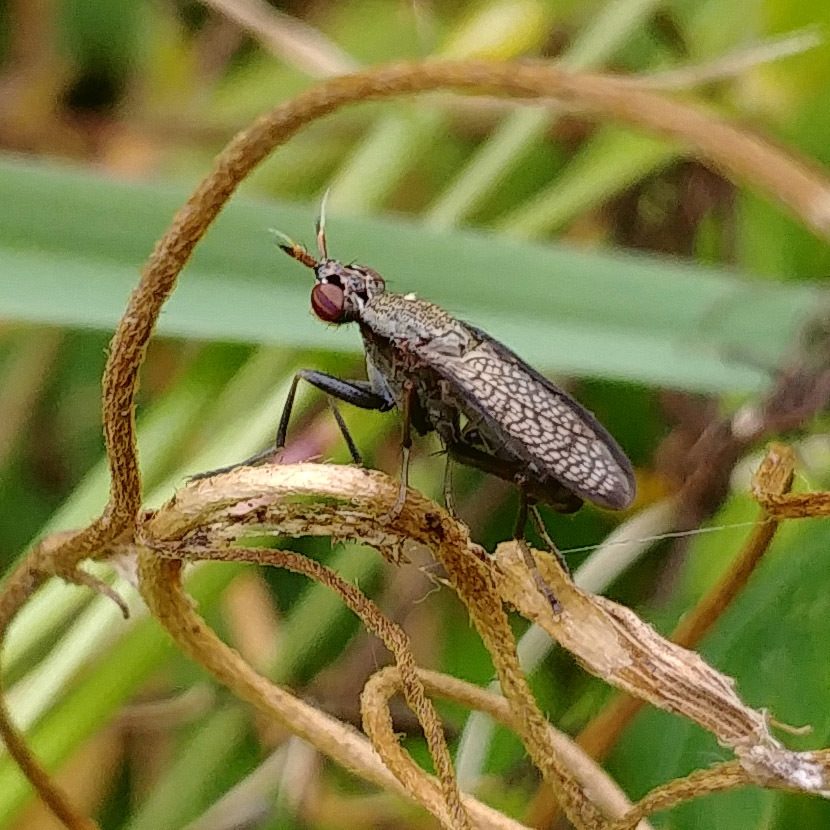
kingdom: Animalia
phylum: Arthropoda
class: Insecta
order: Diptera
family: Sciomyzidae
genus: Coremacera
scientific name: Coremacera marginata
